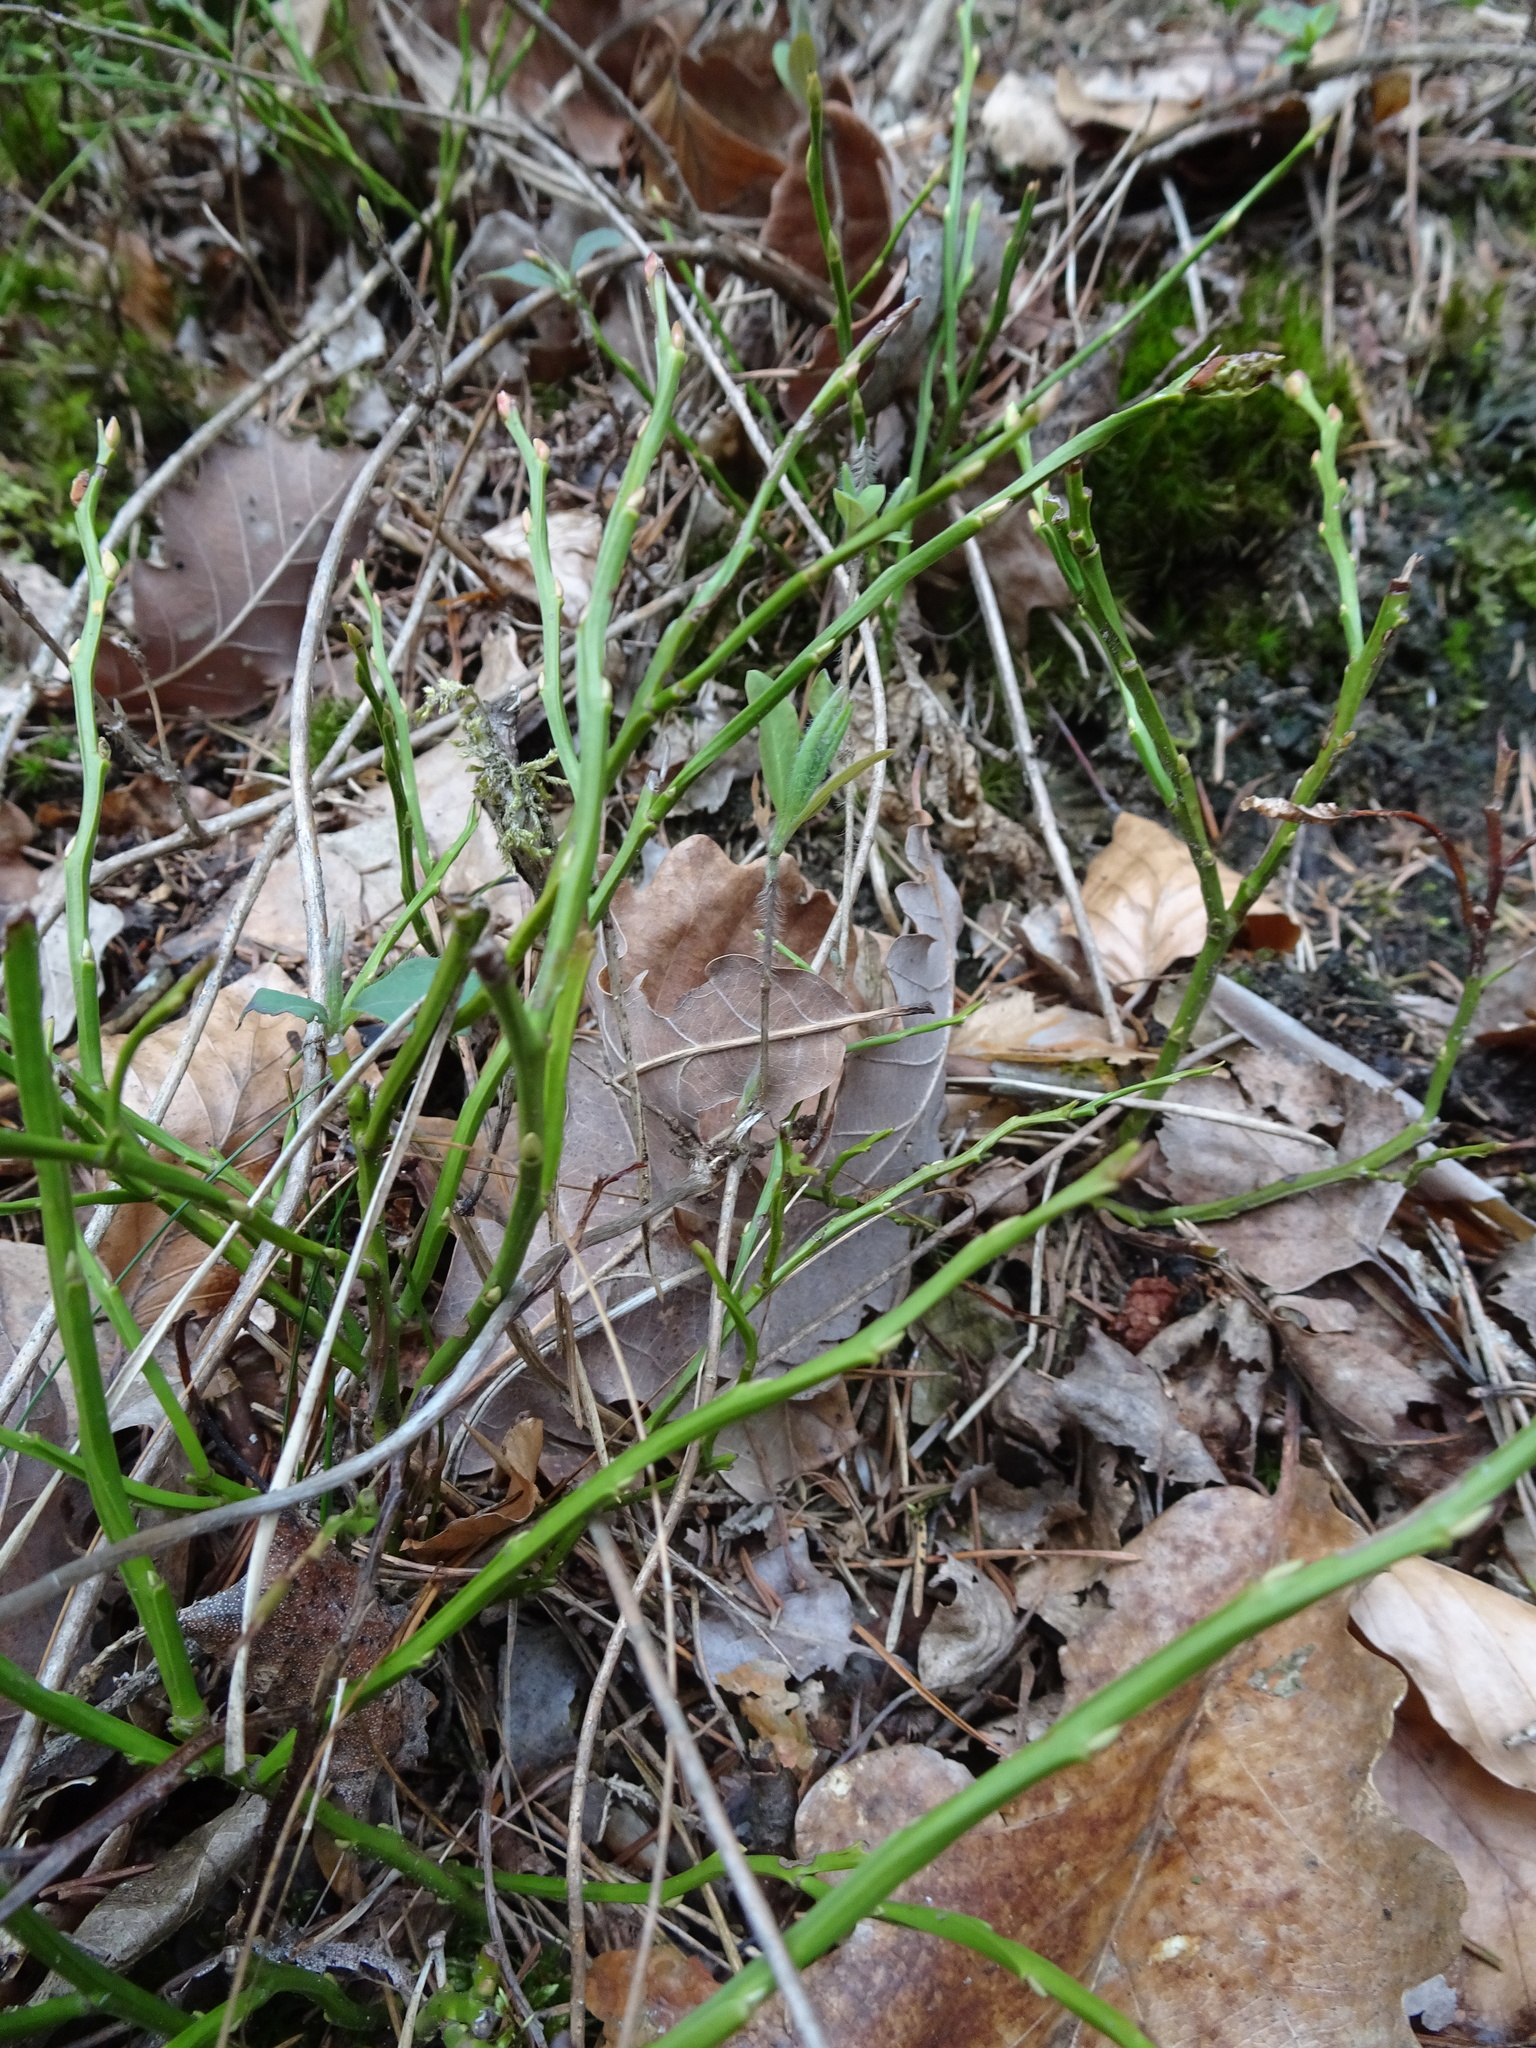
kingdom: Plantae
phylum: Tracheophyta
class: Magnoliopsida
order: Ericales
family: Ericaceae
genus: Vaccinium
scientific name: Vaccinium myrtillus
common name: Bilberry
